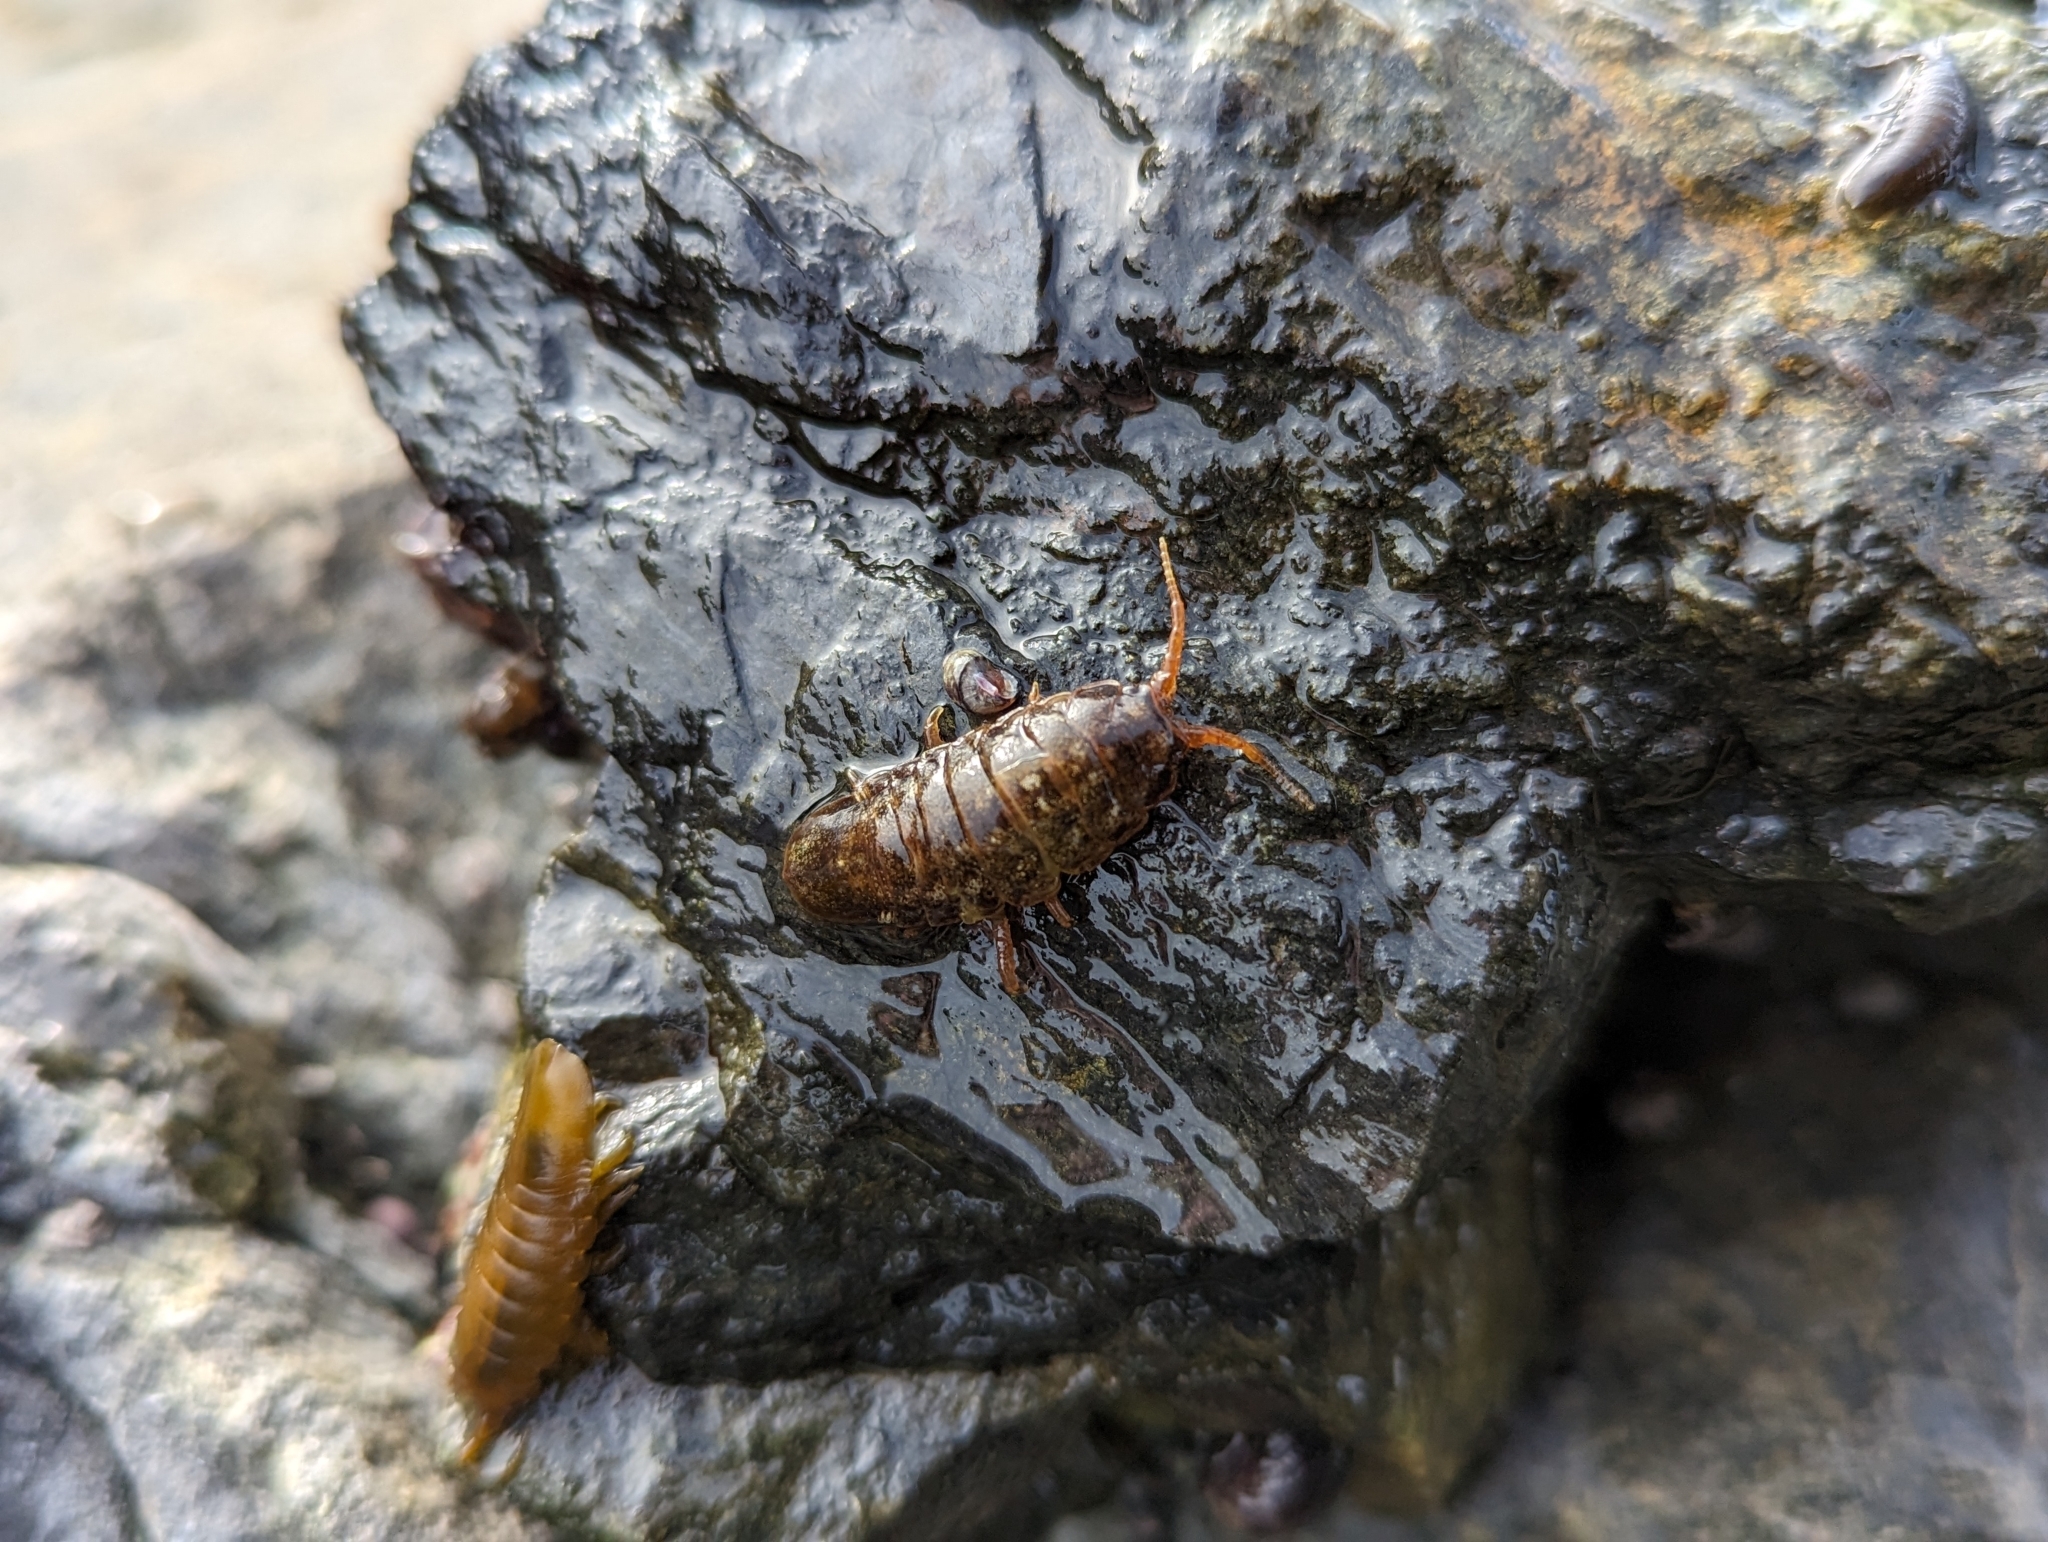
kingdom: Animalia
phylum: Arthropoda
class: Malacostraca
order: Isopoda
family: Idoteidae
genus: Pentidotea
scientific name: Pentidotea wosnesenskii
